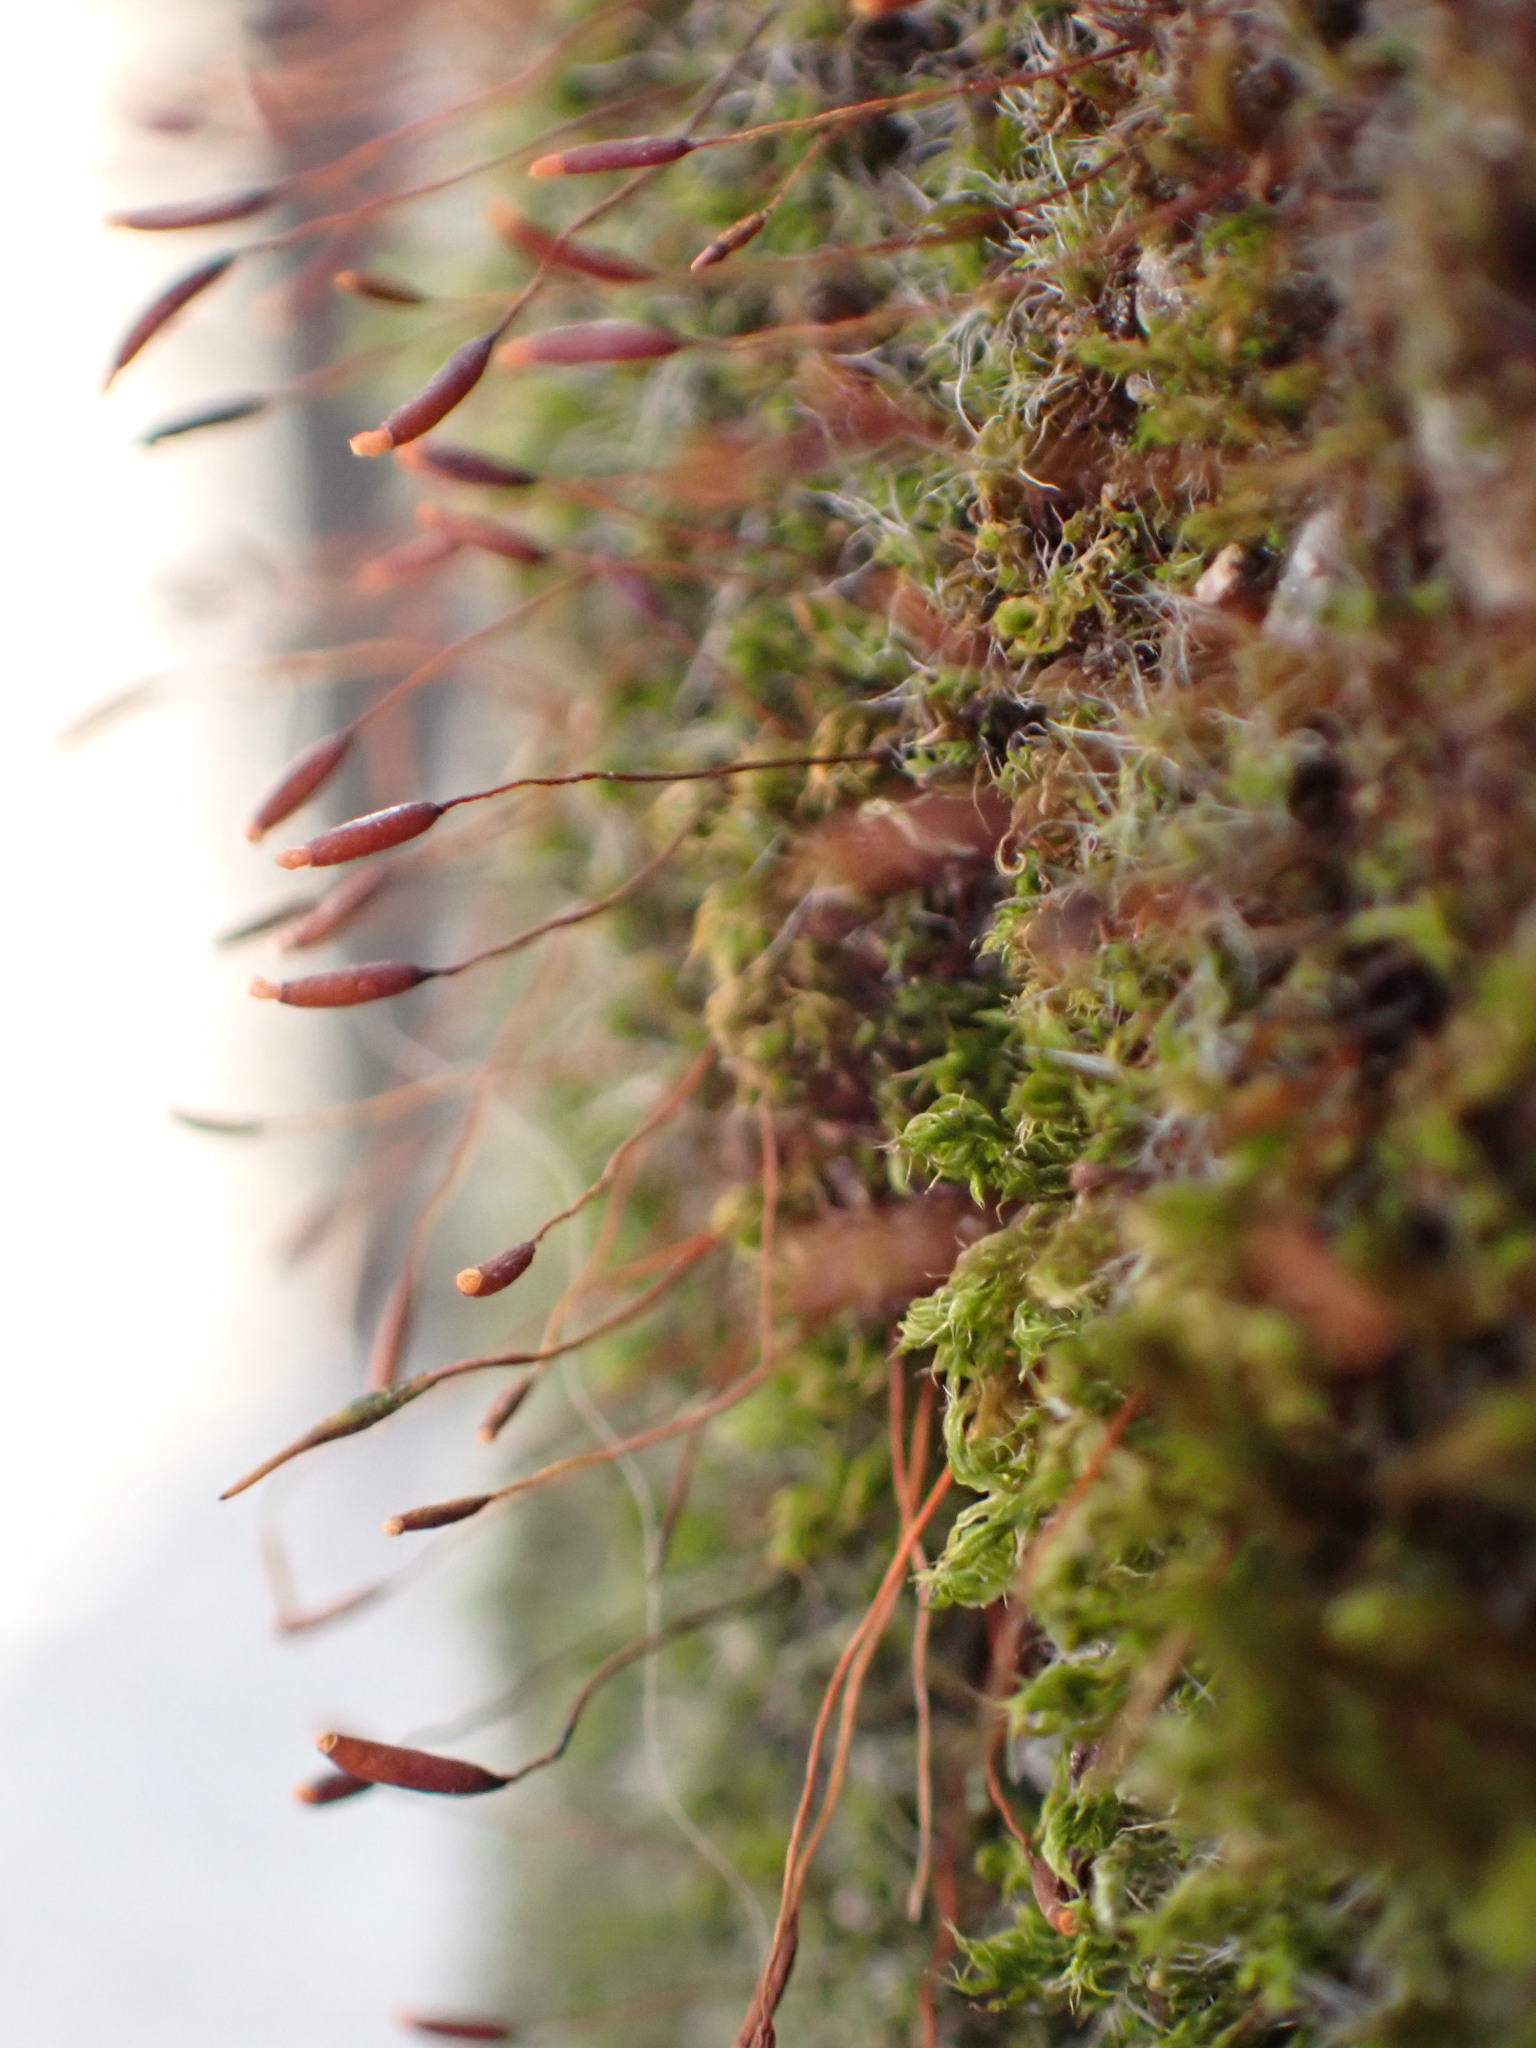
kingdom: Plantae
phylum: Bryophyta
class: Bryopsida
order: Pottiales
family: Pottiaceae
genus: Tortula
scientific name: Tortula muralis
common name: Wall screw-moss
